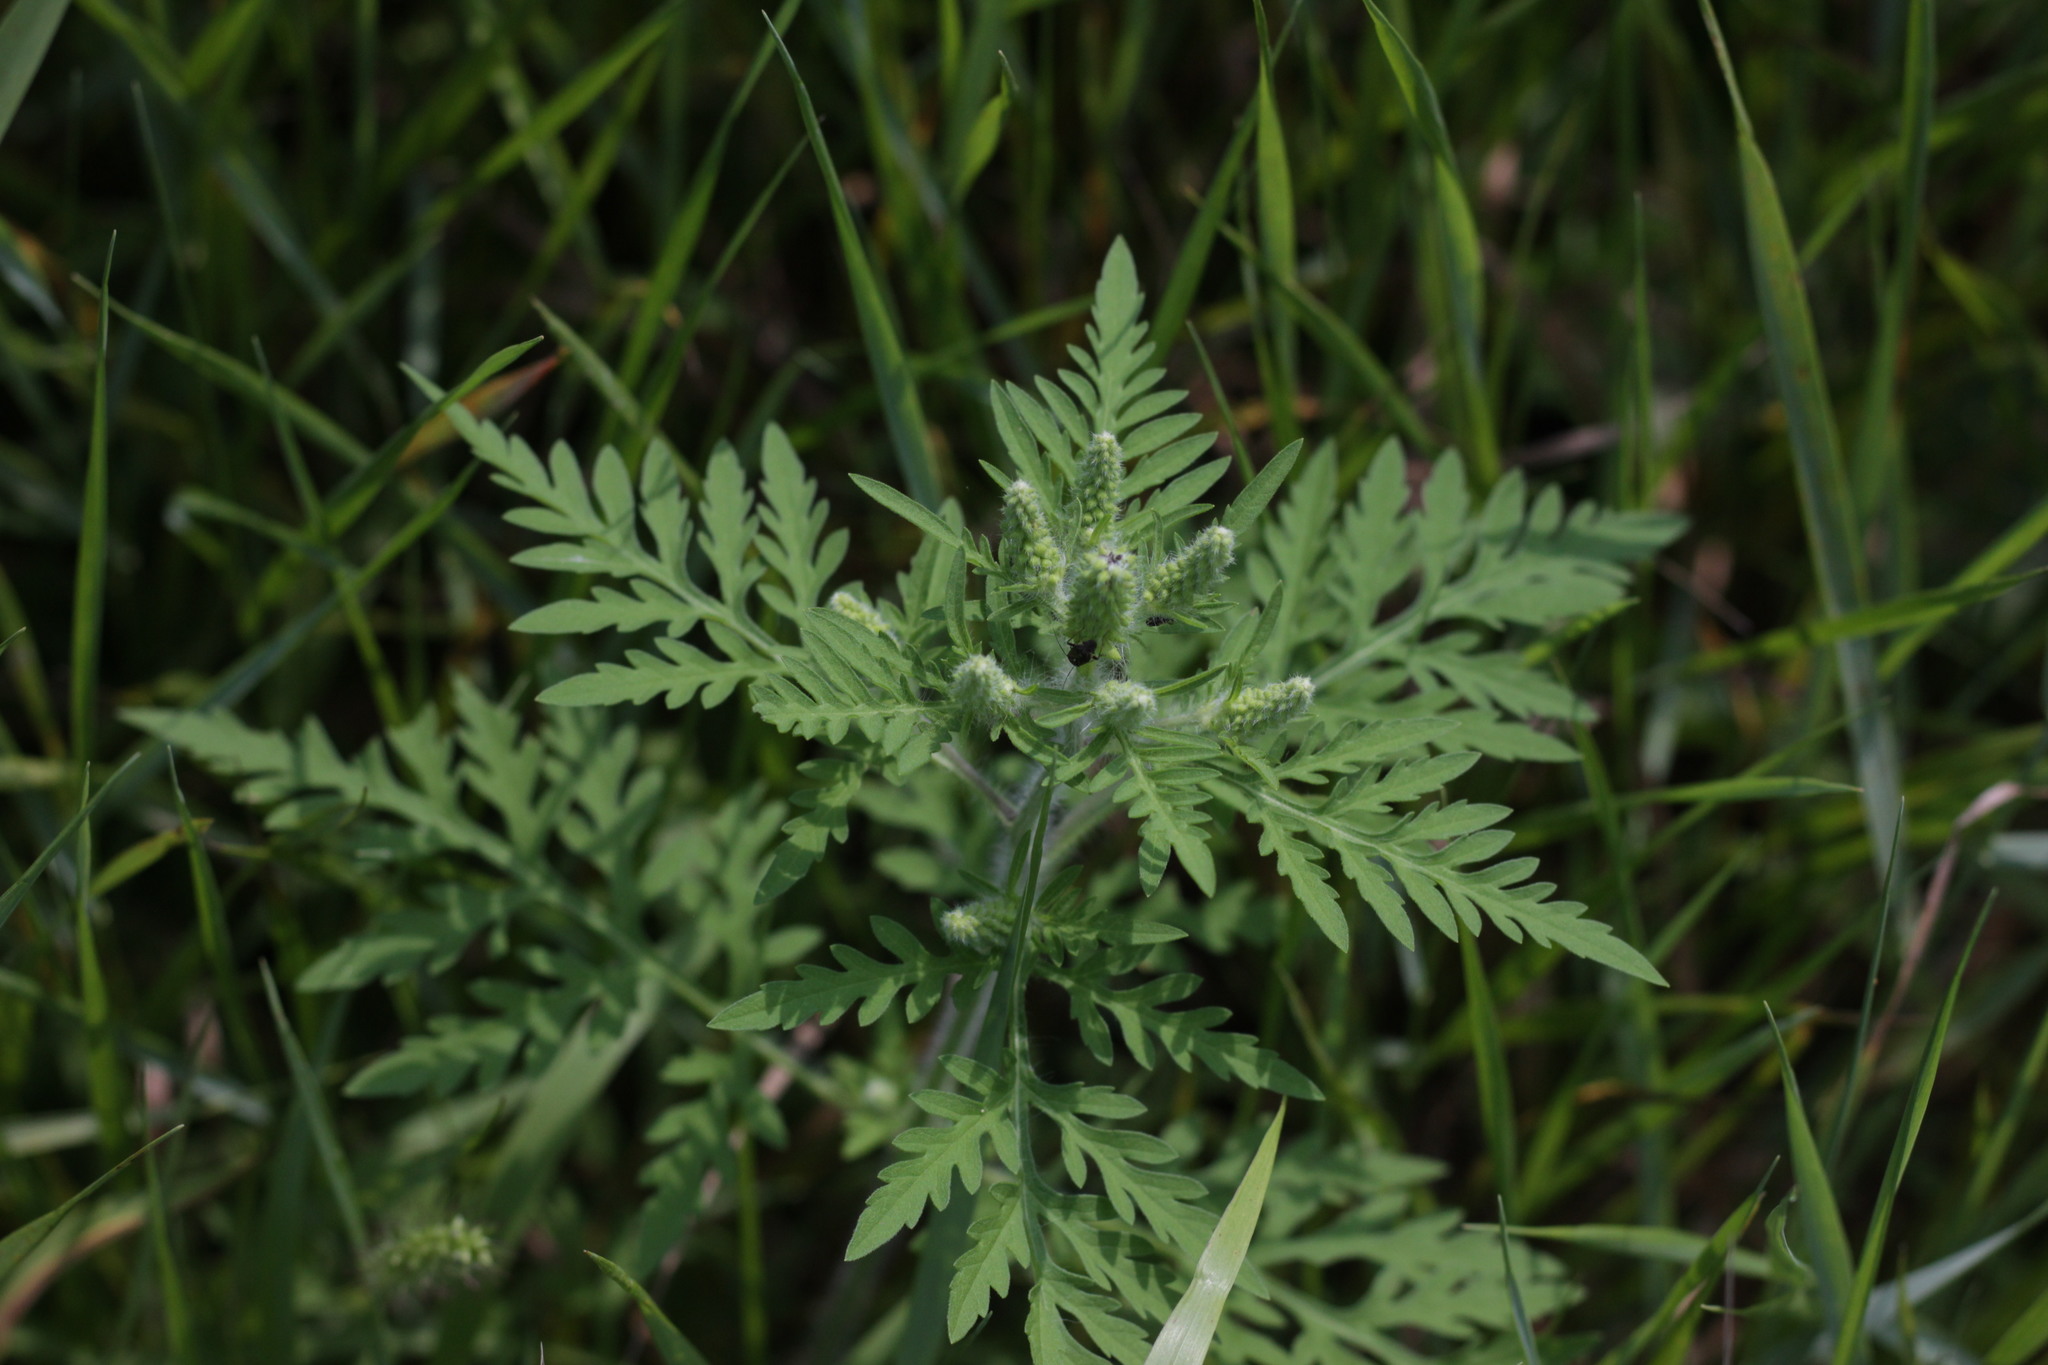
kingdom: Plantae
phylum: Tracheophyta
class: Magnoliopsida
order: Asterales
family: Asteraceae
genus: Ambrosia
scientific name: Ambrosia artemisiifolia
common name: Annual ragweed
